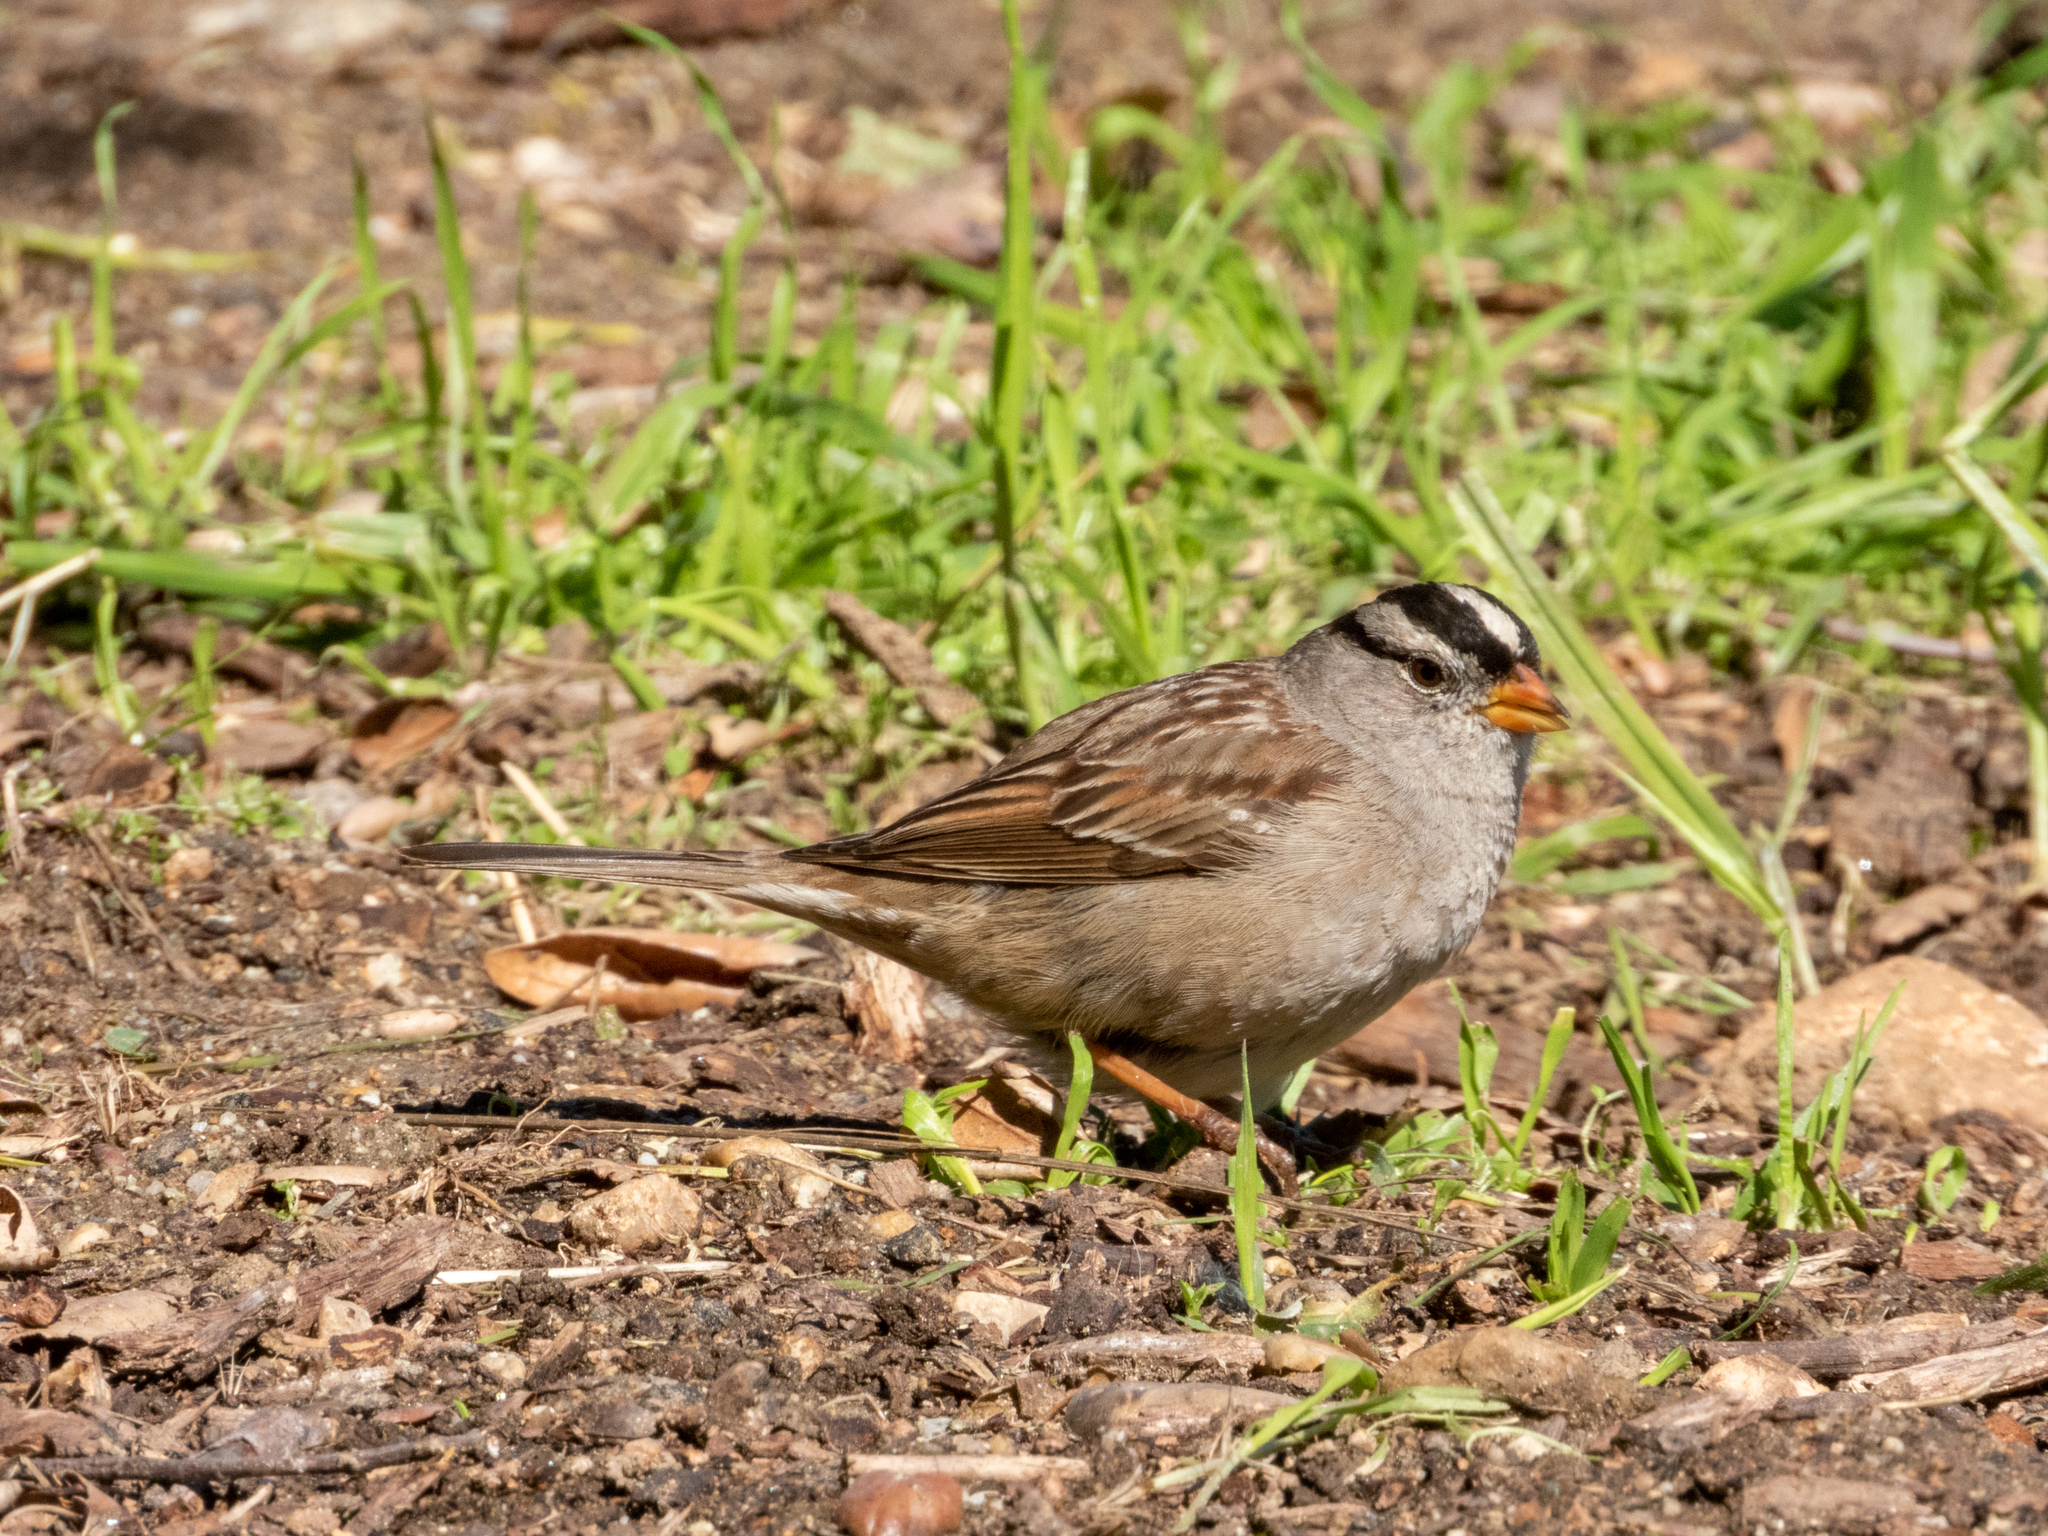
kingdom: Animalia
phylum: Chordata
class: Aves
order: Passeriformes
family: Passerellidae
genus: Zonotrichia
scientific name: Zonotrichia leucophrys
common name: White-crowned sparrow
